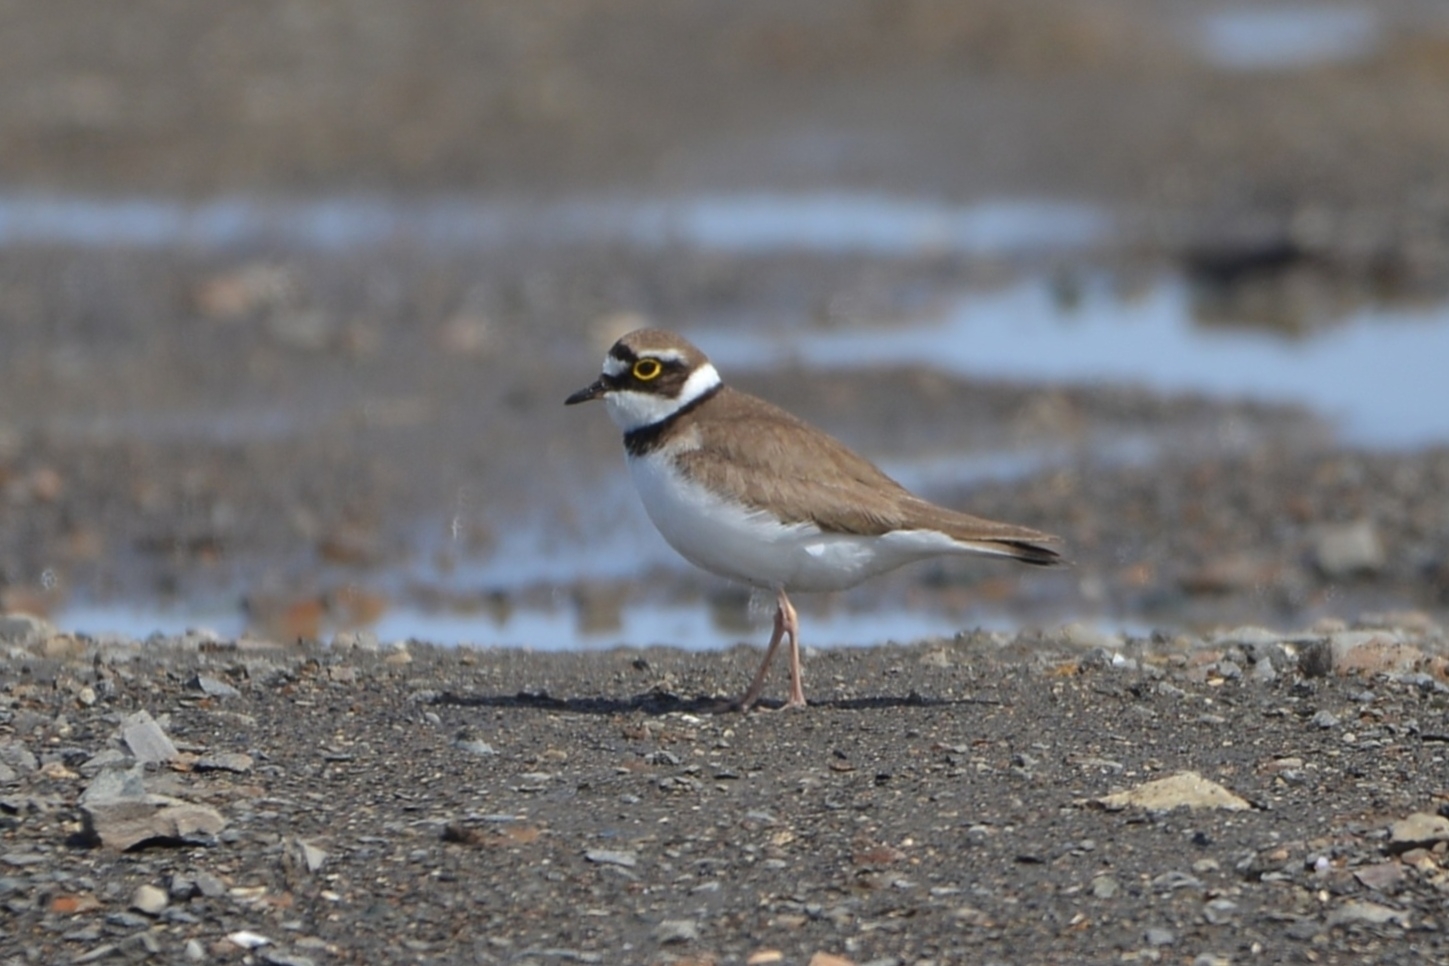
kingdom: Animalia
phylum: Chordata
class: Aves
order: Charadriiformes
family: Charadriidae
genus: Charadrius
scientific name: Charadrius dubius
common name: Little ringed plover
